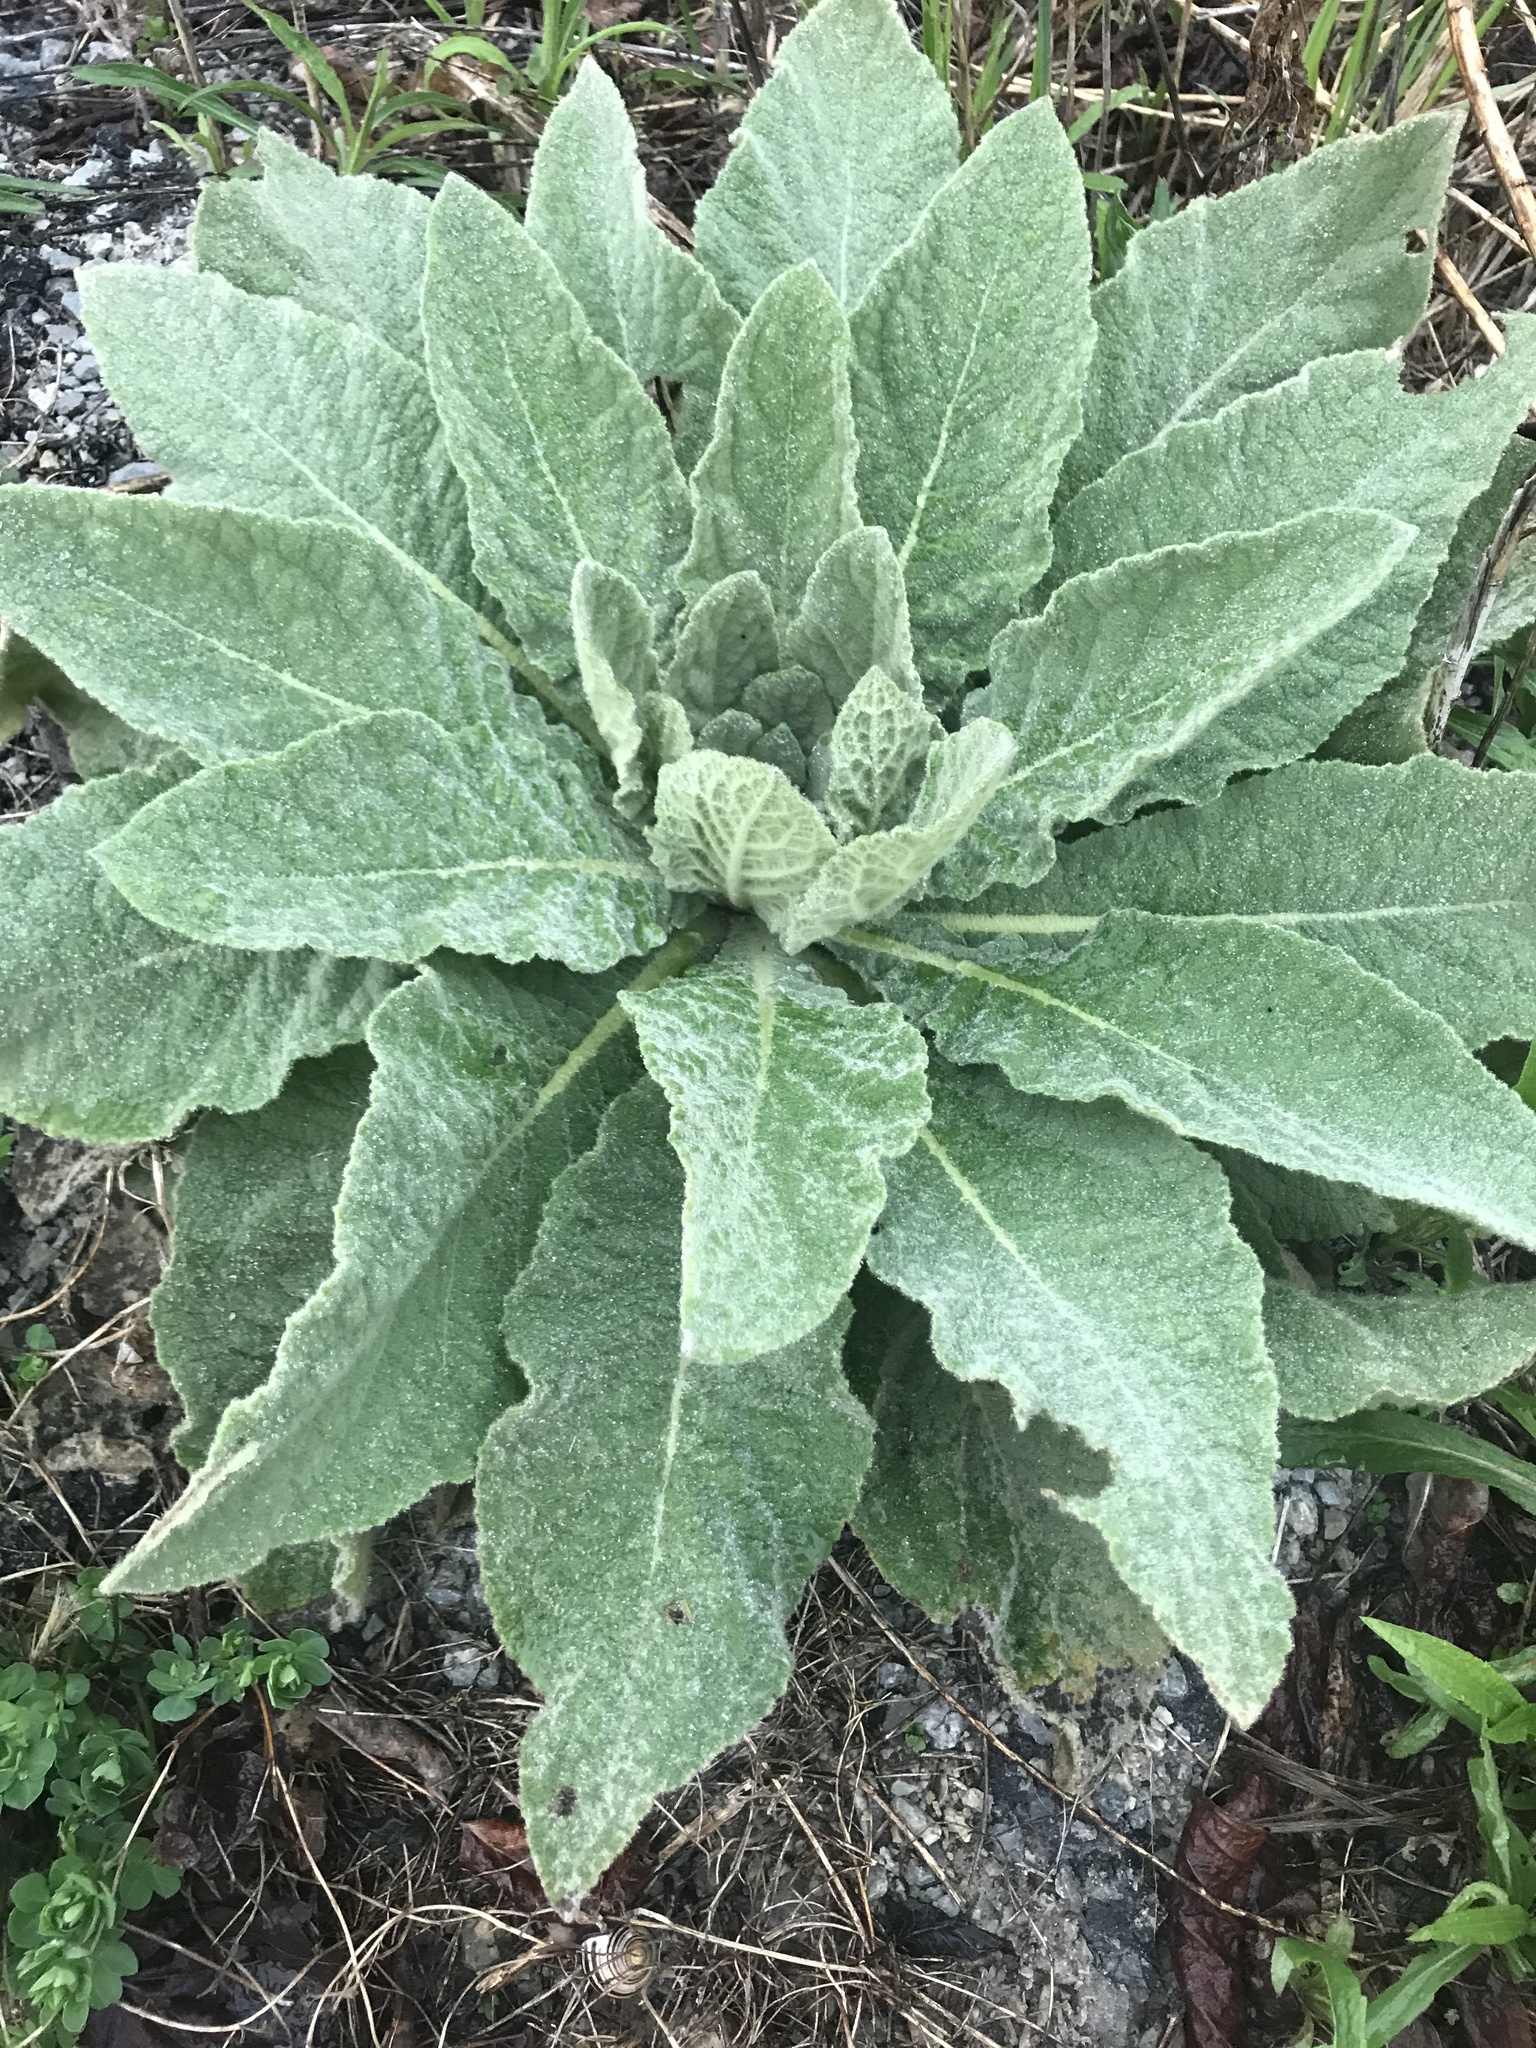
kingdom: Plantae
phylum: Tracheophyta
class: Magnoliopsida
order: Lamiales
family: Scrophulariaceae
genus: Verbascum
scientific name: Verbascum thapsus
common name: Common mullein
